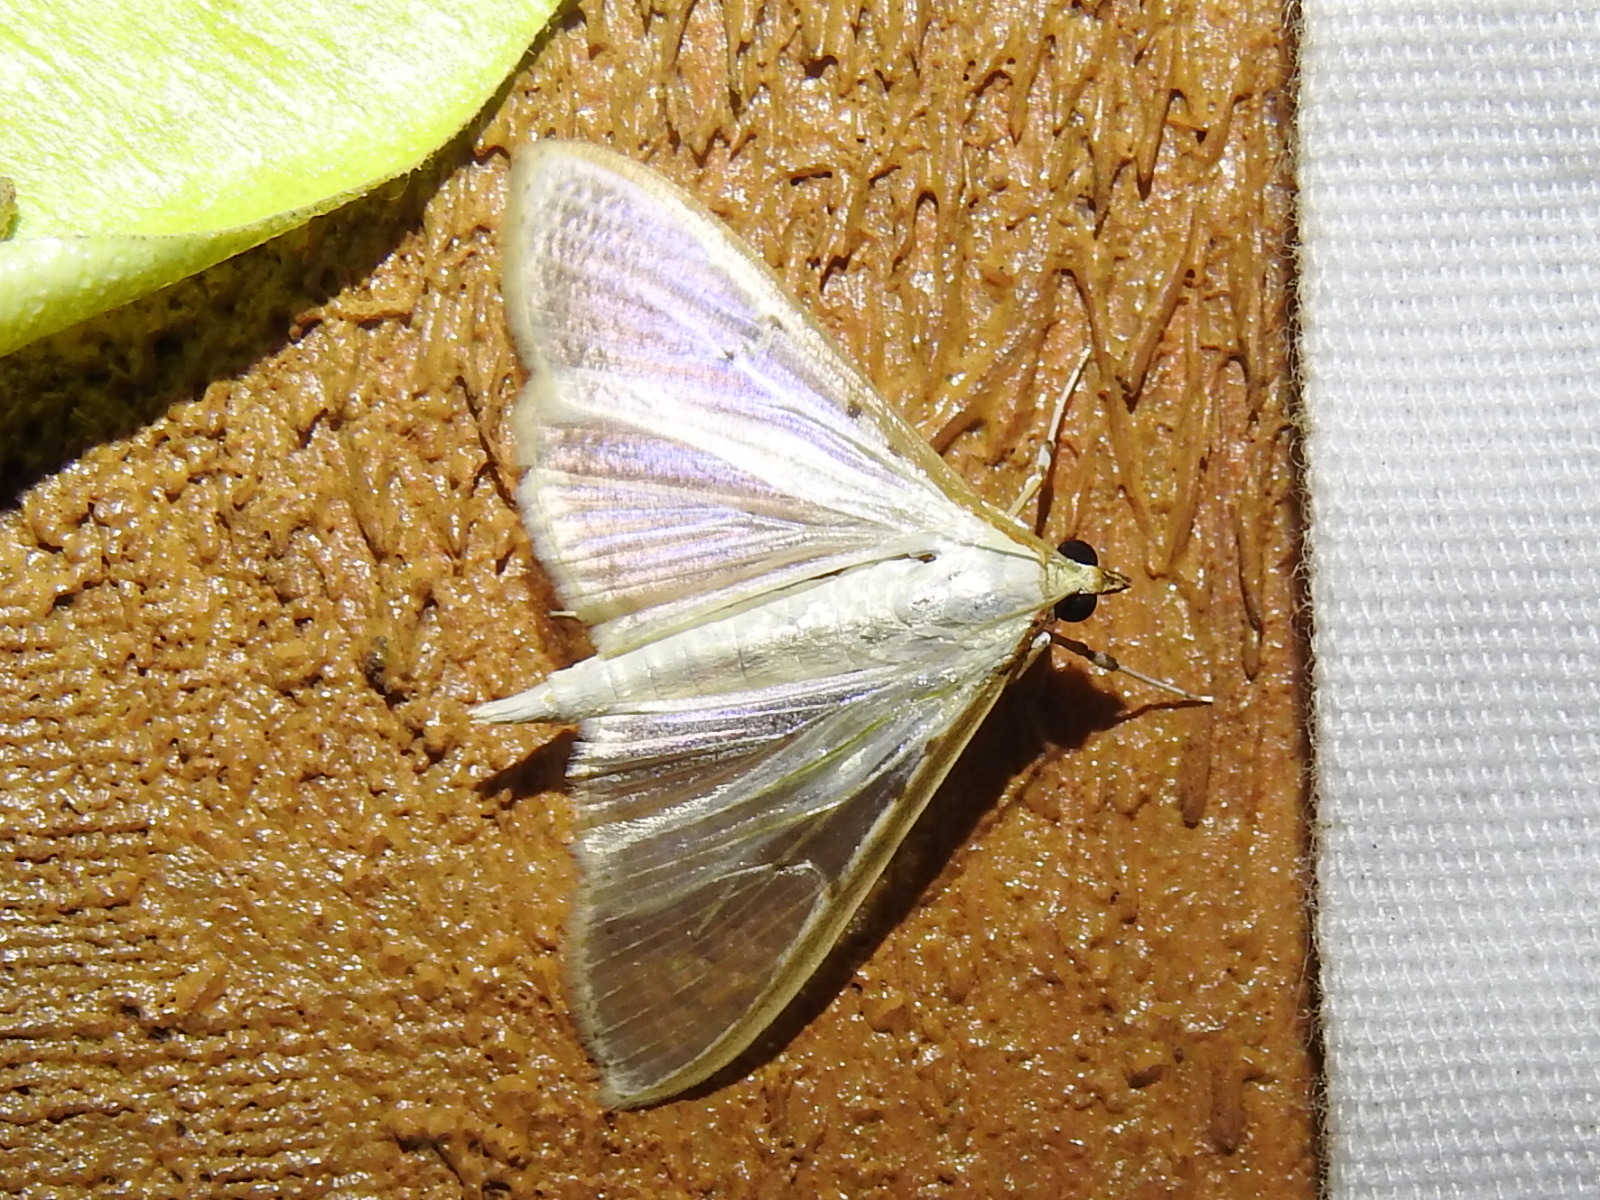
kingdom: Animalia
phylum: Arthropoda
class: Insecta
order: Lepidoptera
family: Crambidae
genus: Palpita
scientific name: Palpita quadristigmalis
